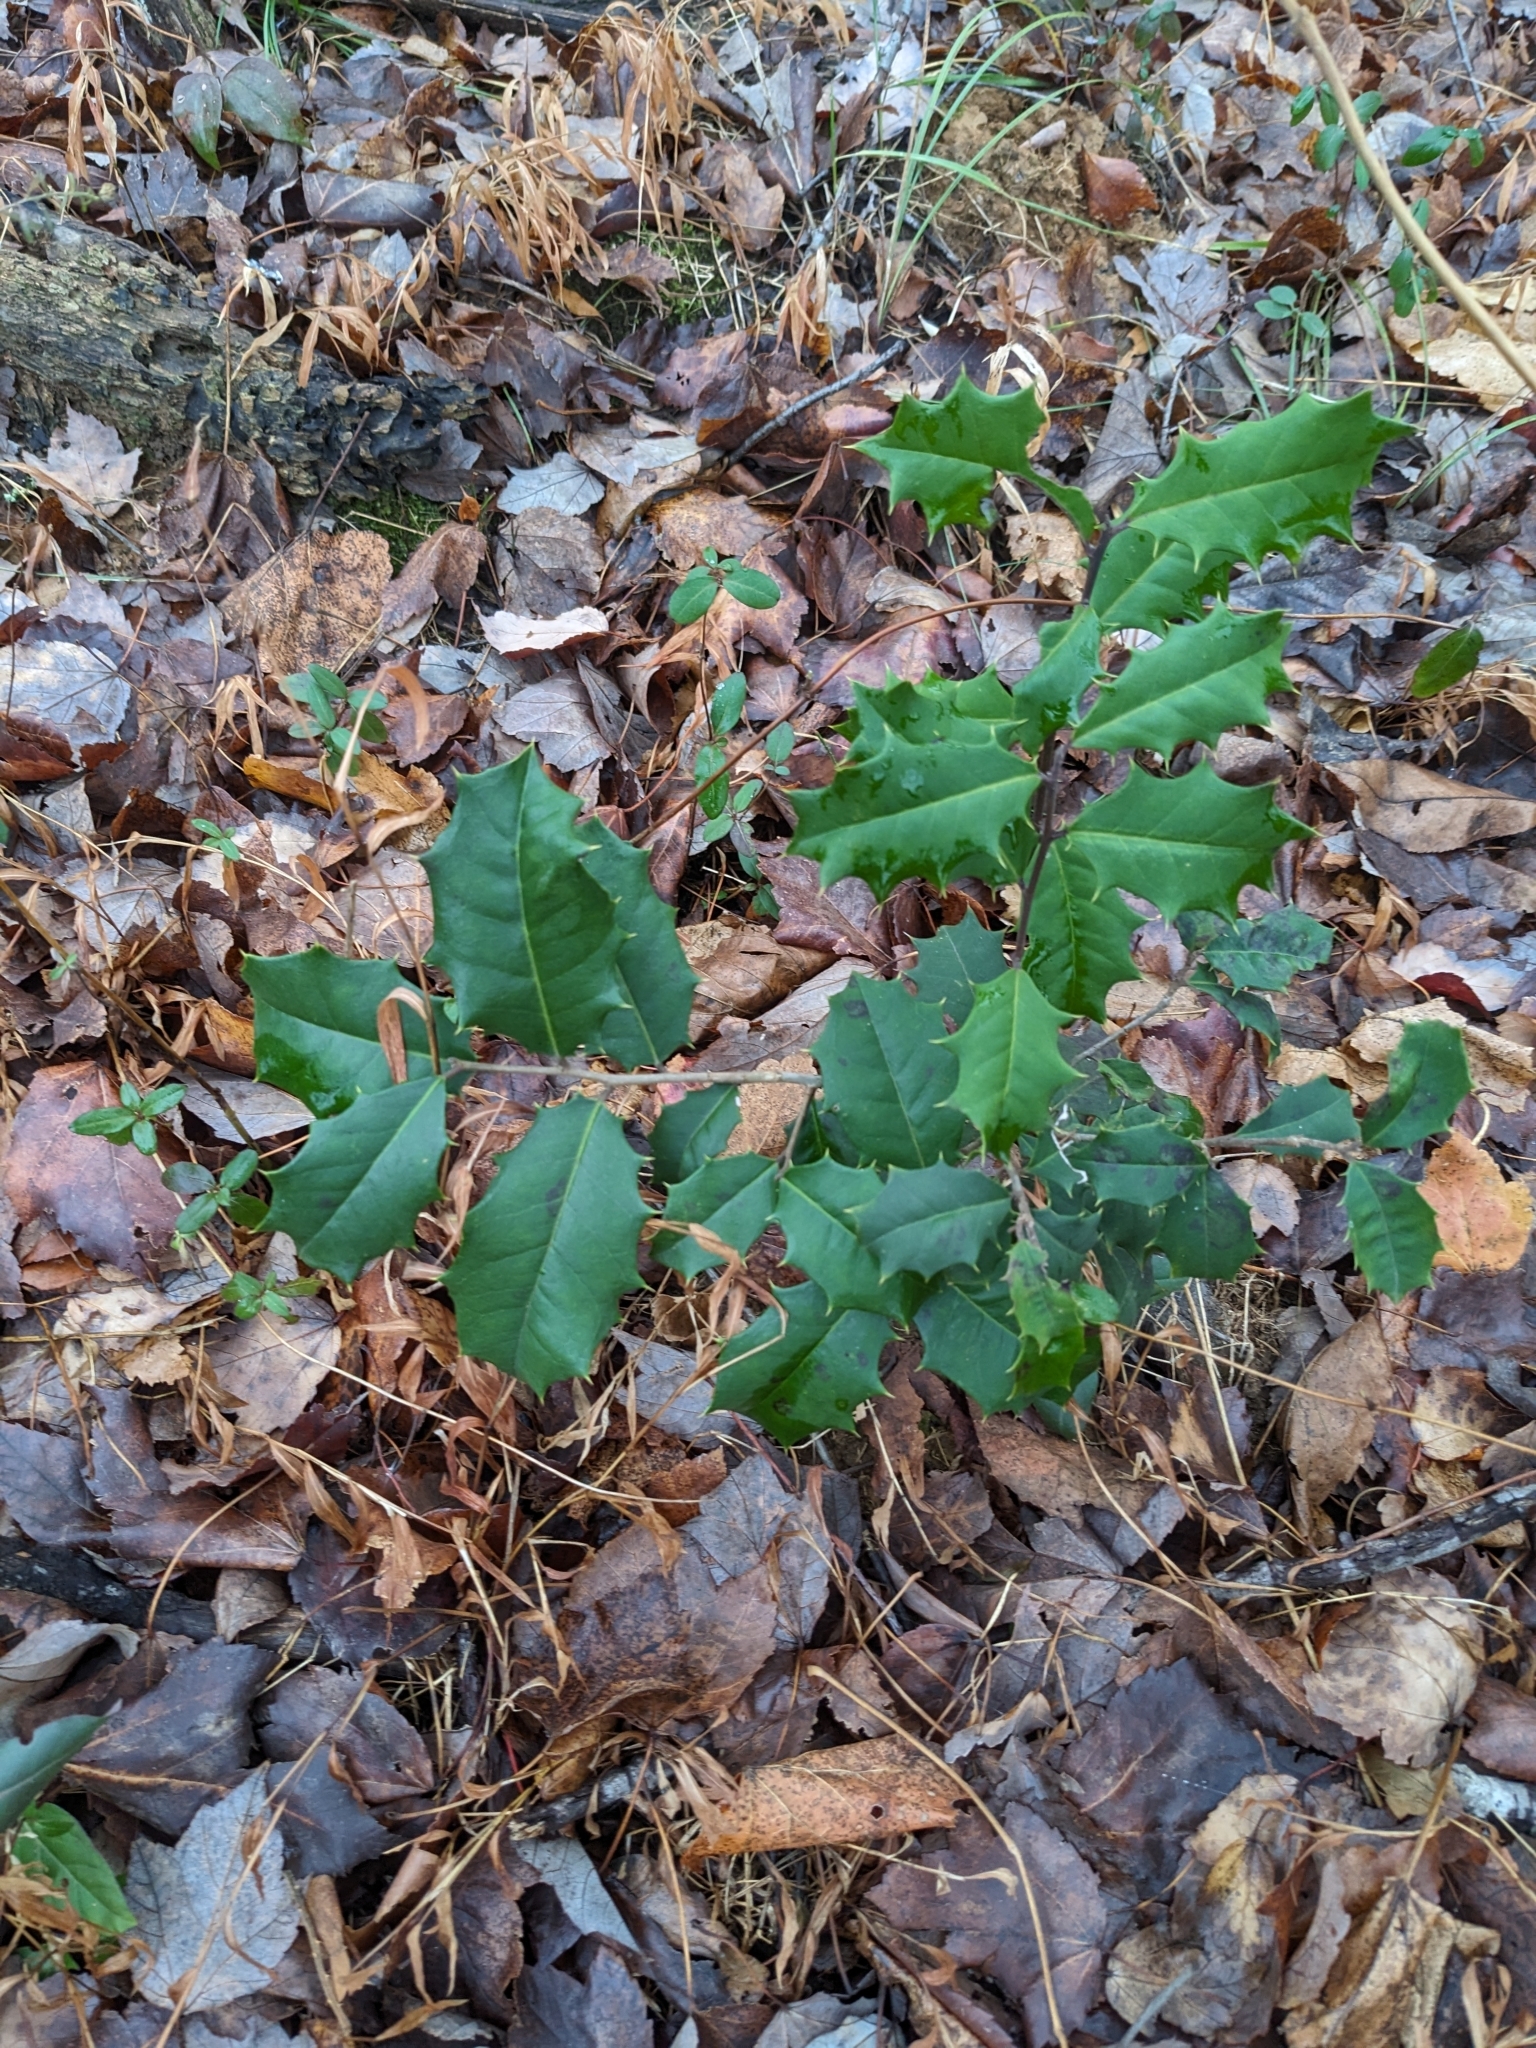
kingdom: Plantae
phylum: Tracheophyta
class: Magnoliopsida
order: Aquifoliales
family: Aquifoliaceae
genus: Ilex
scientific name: Ilex opaca
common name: American holly
